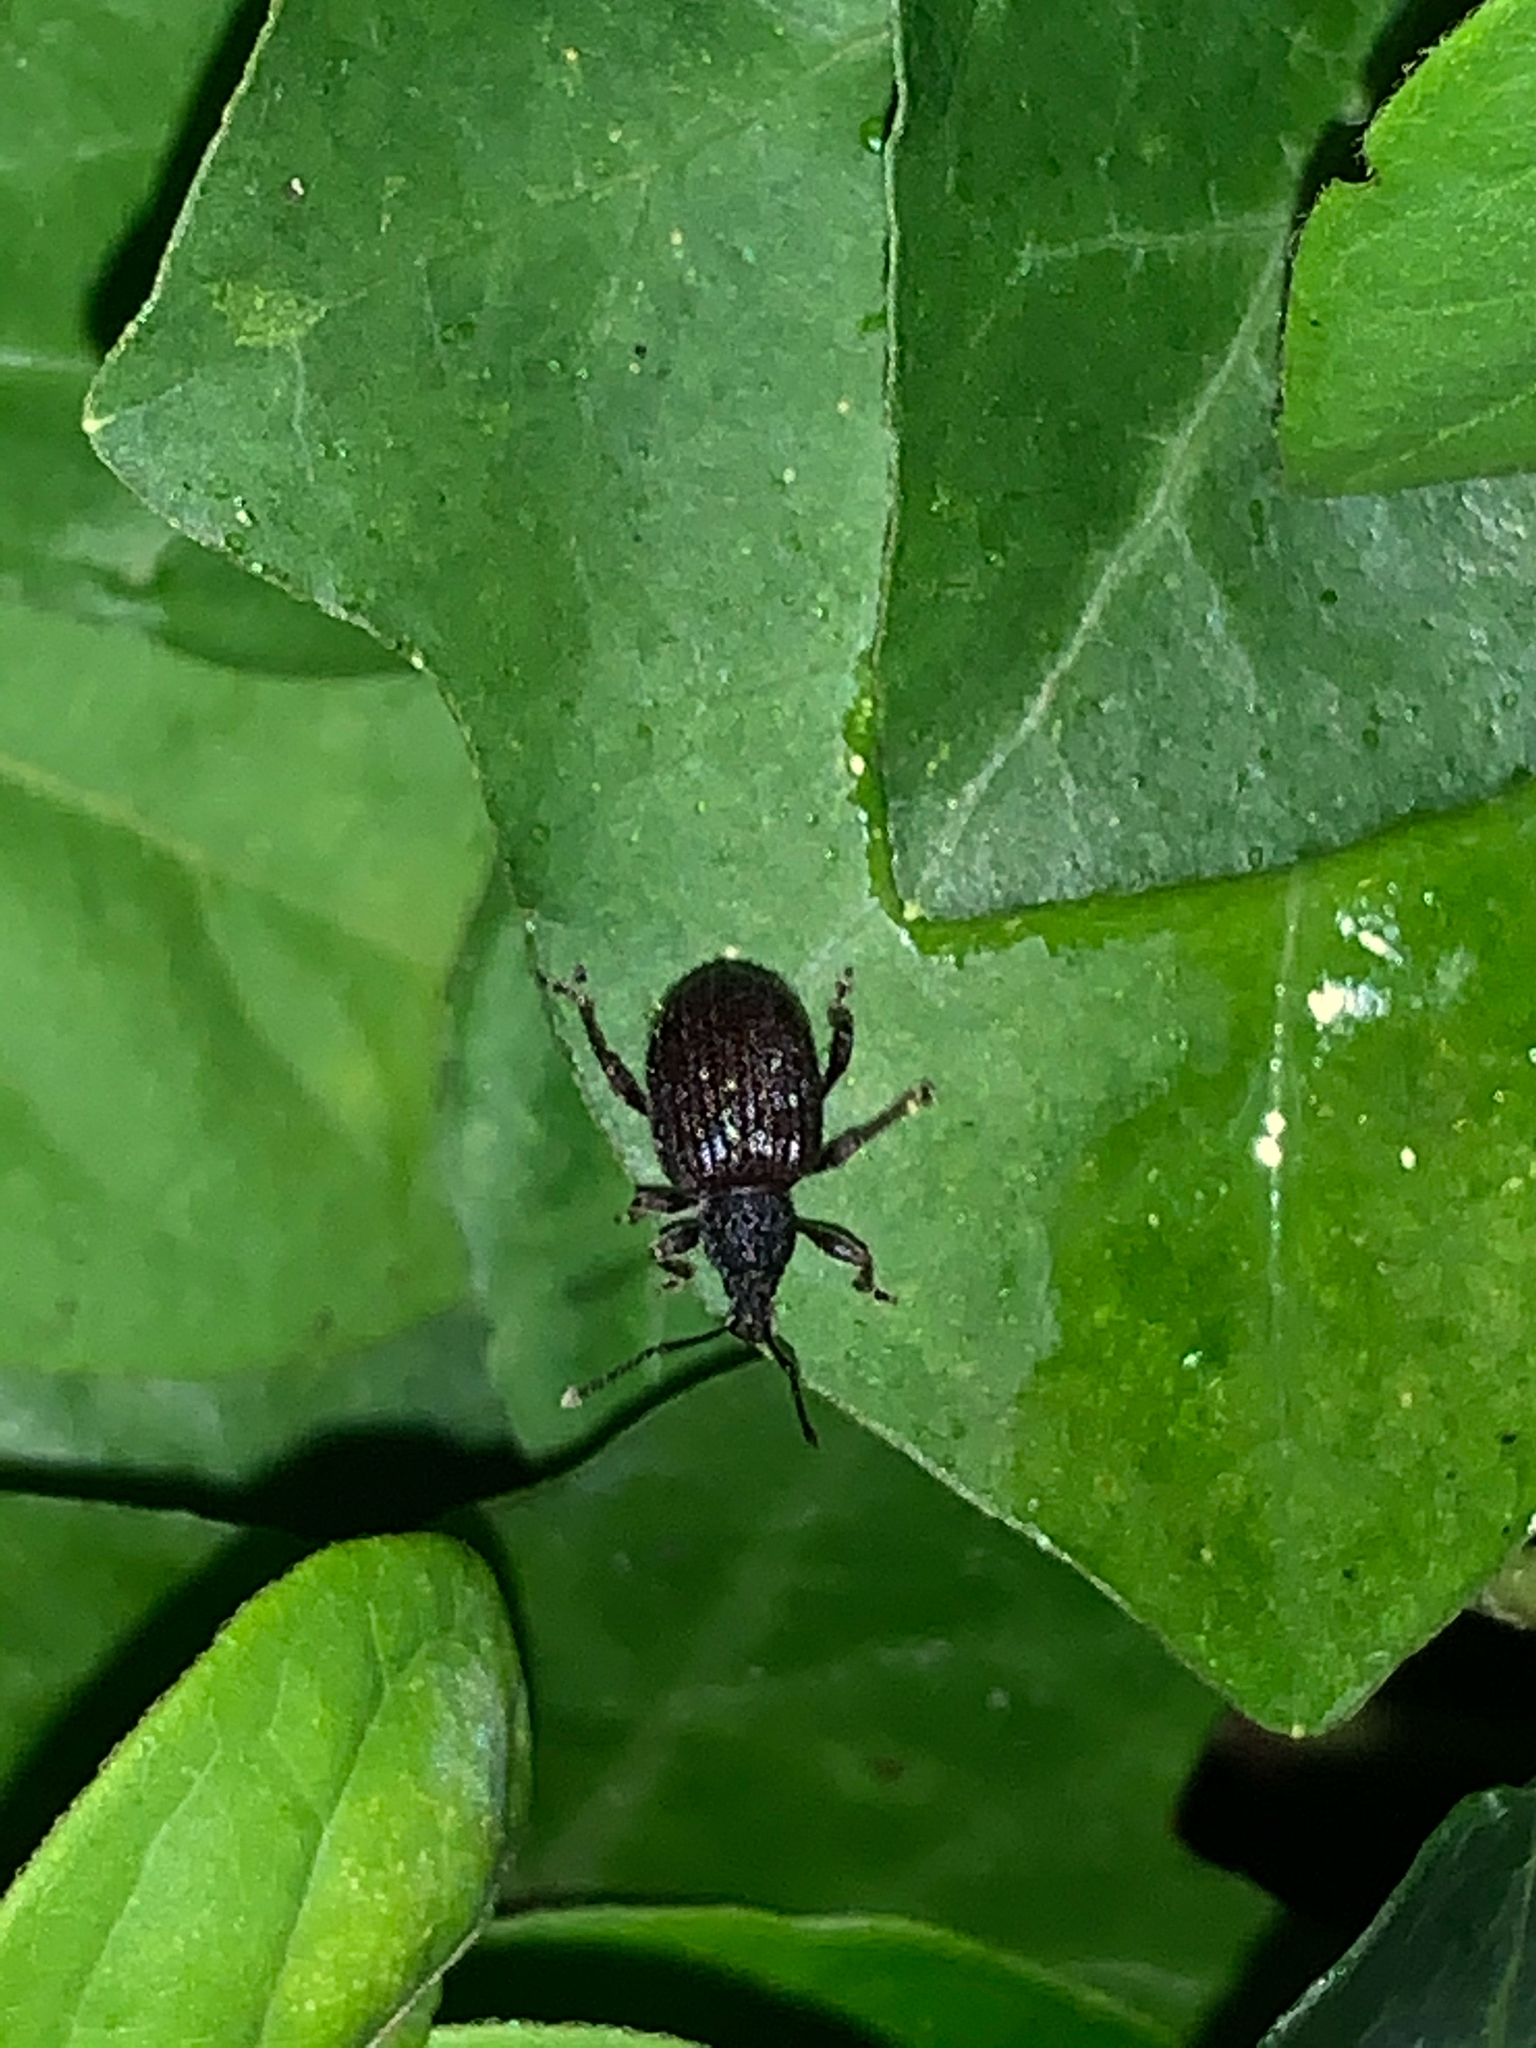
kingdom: Animalia
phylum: Arthropoda
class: Insecta
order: Coleoptera
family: Curculionidae
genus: Otiorhynchus
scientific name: Otiorhynchus rugosostriatus
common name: Weevil
